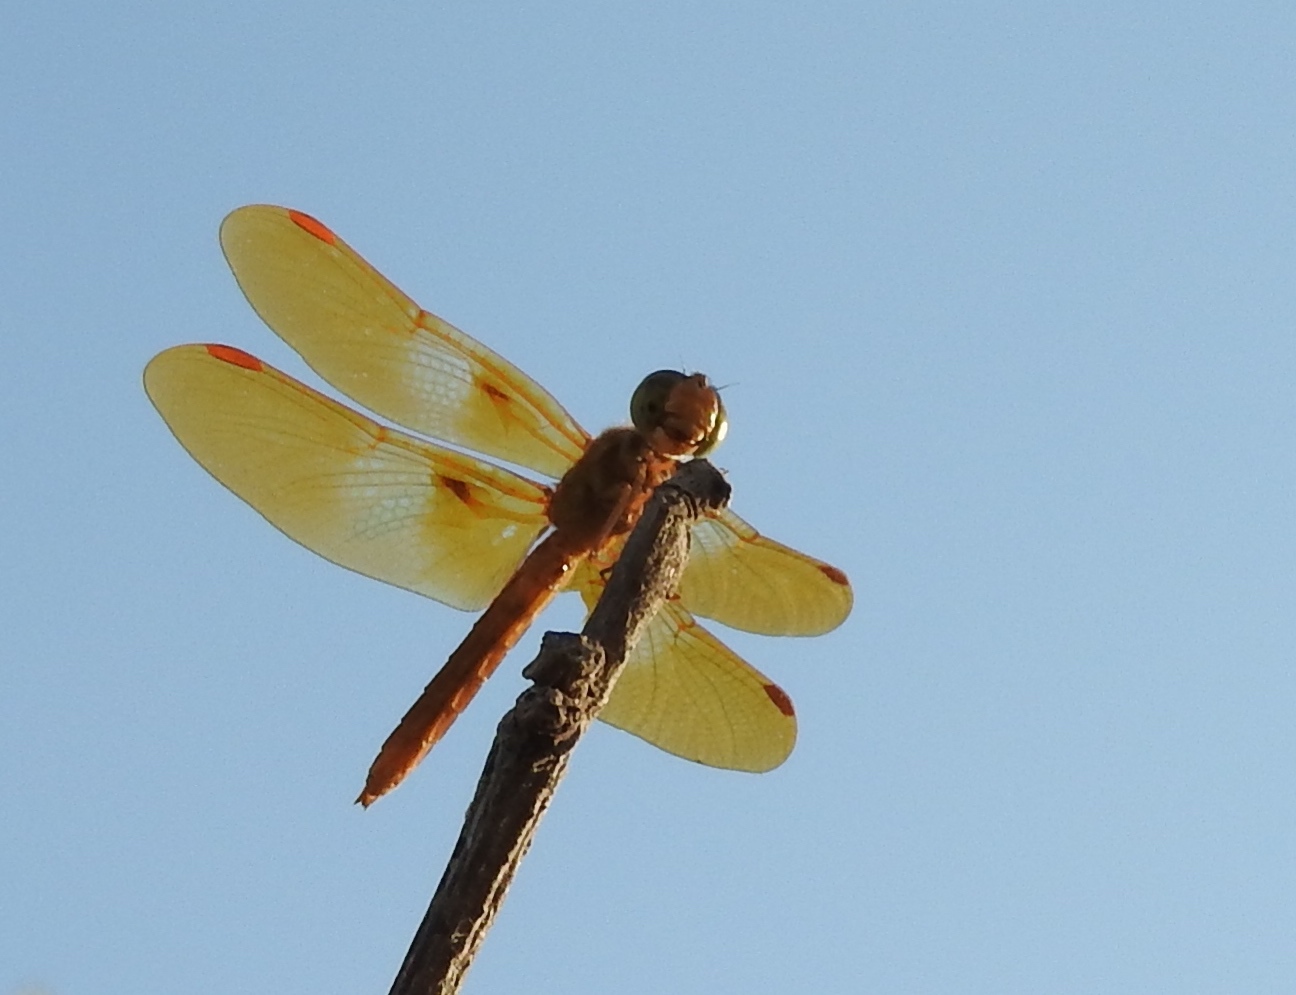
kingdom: Animalia
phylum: Arthropoda
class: Insecta
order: Odonata
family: Libellulidae
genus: Perithemis
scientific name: Perithemis intensa
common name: Mexican amberwing
